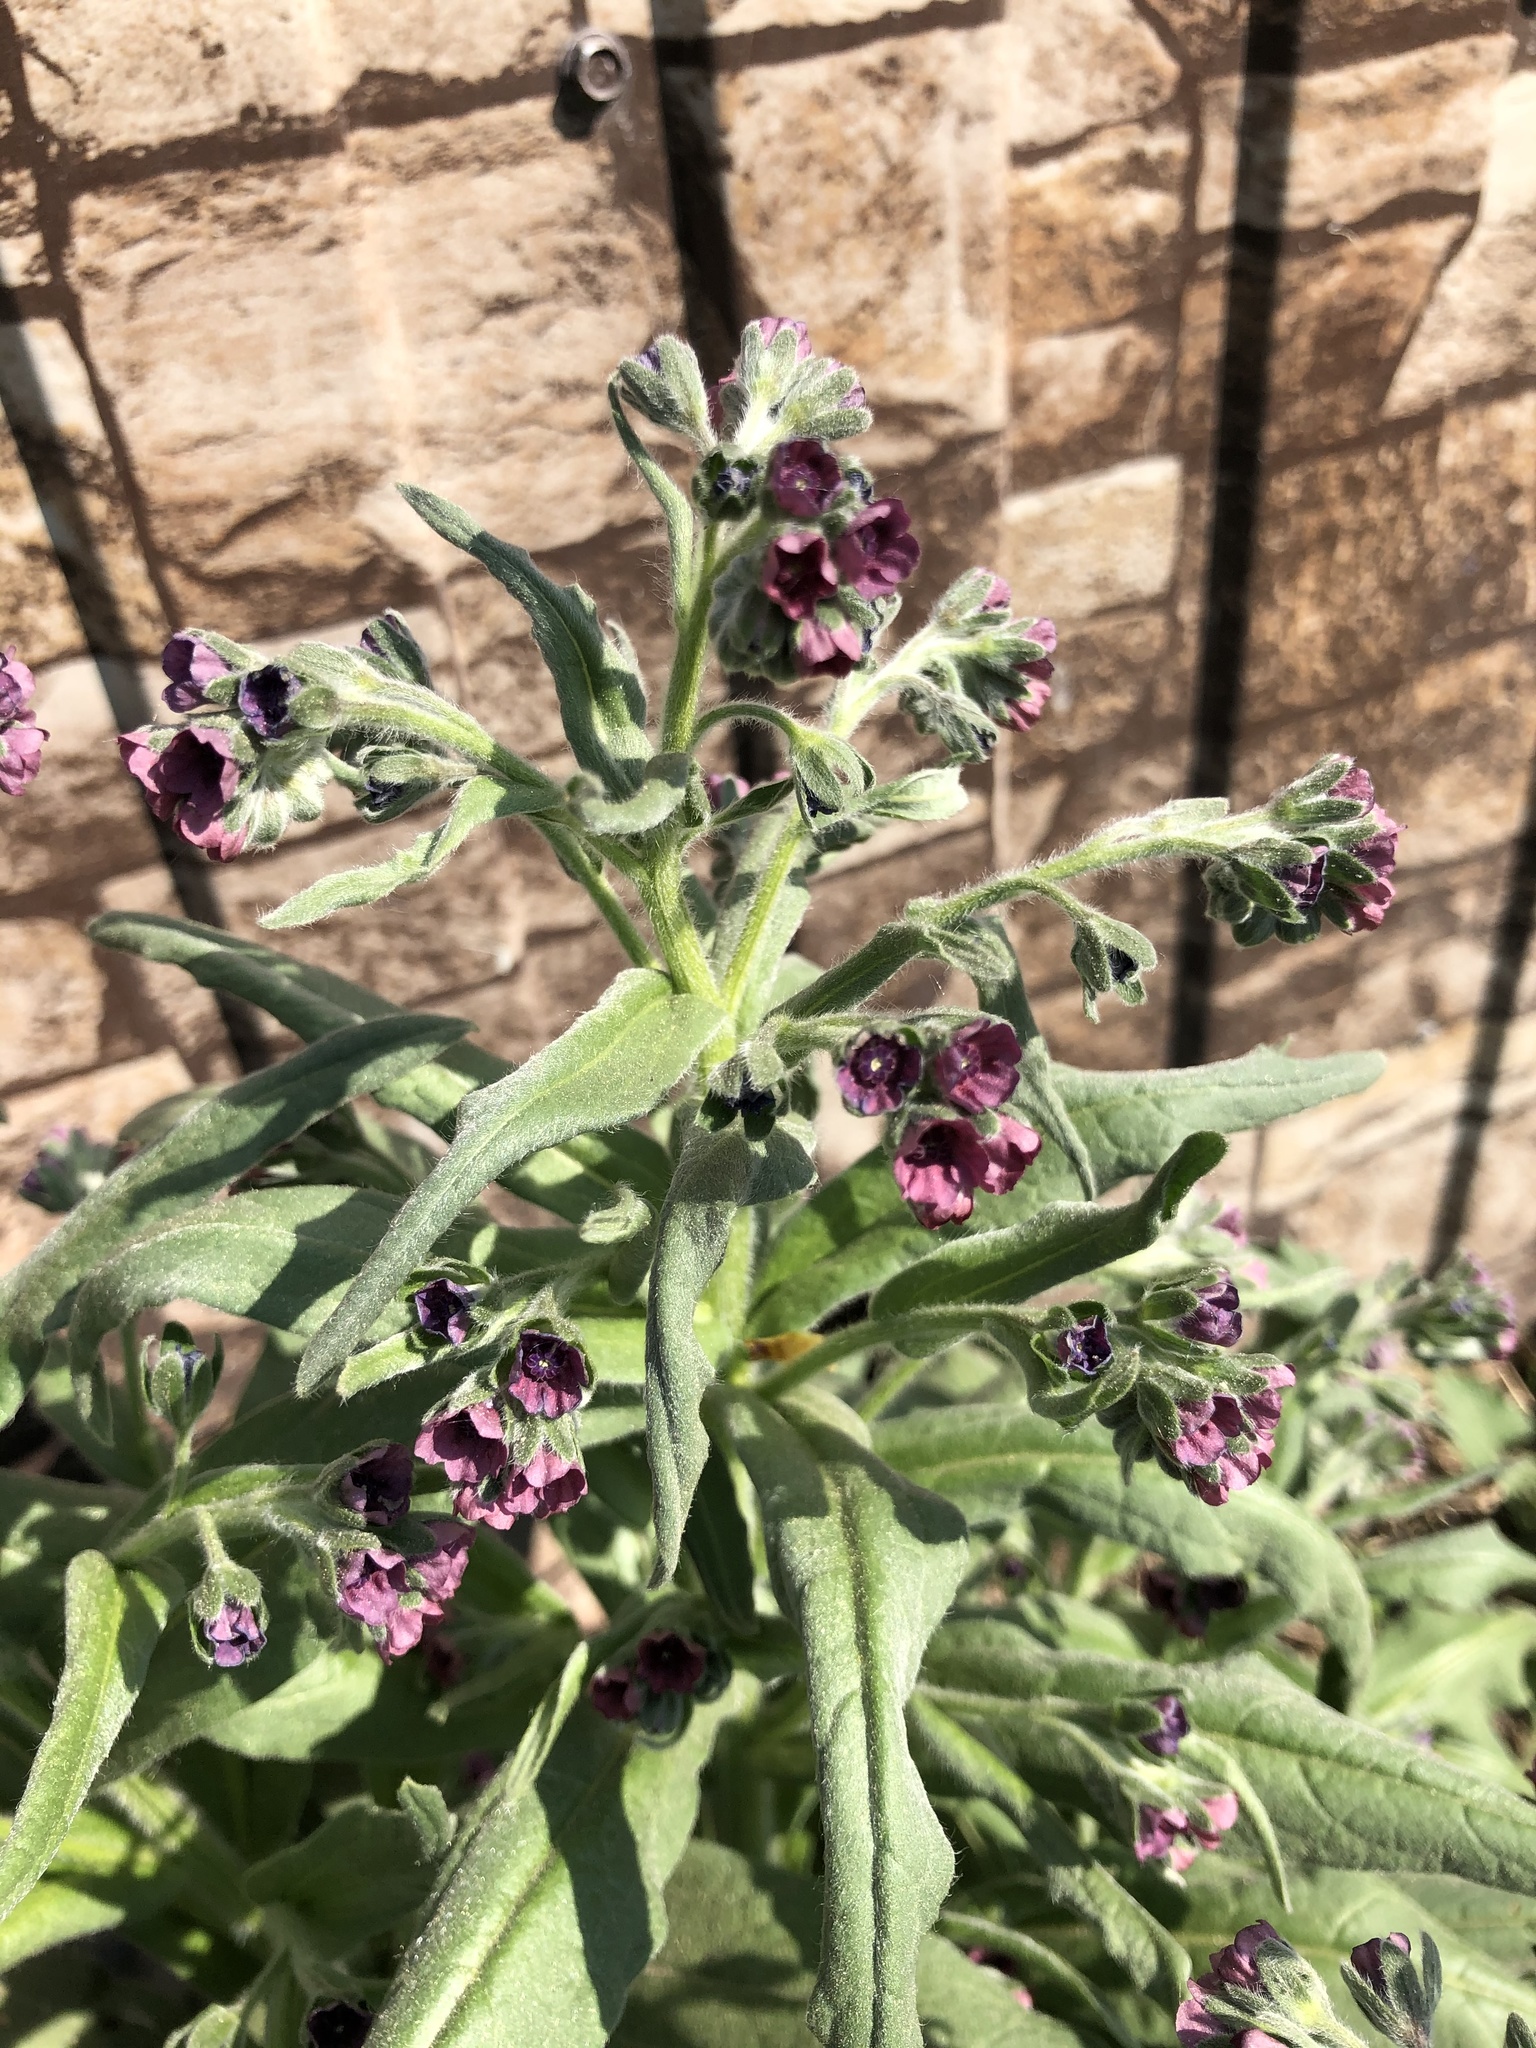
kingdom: Plantae
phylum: Tracheophyta
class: Magnoliopsida
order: Boraginales
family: Boraginaceae
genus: Cynoglossum
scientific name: Cynoglossum officinale
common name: Hound's-tongue
